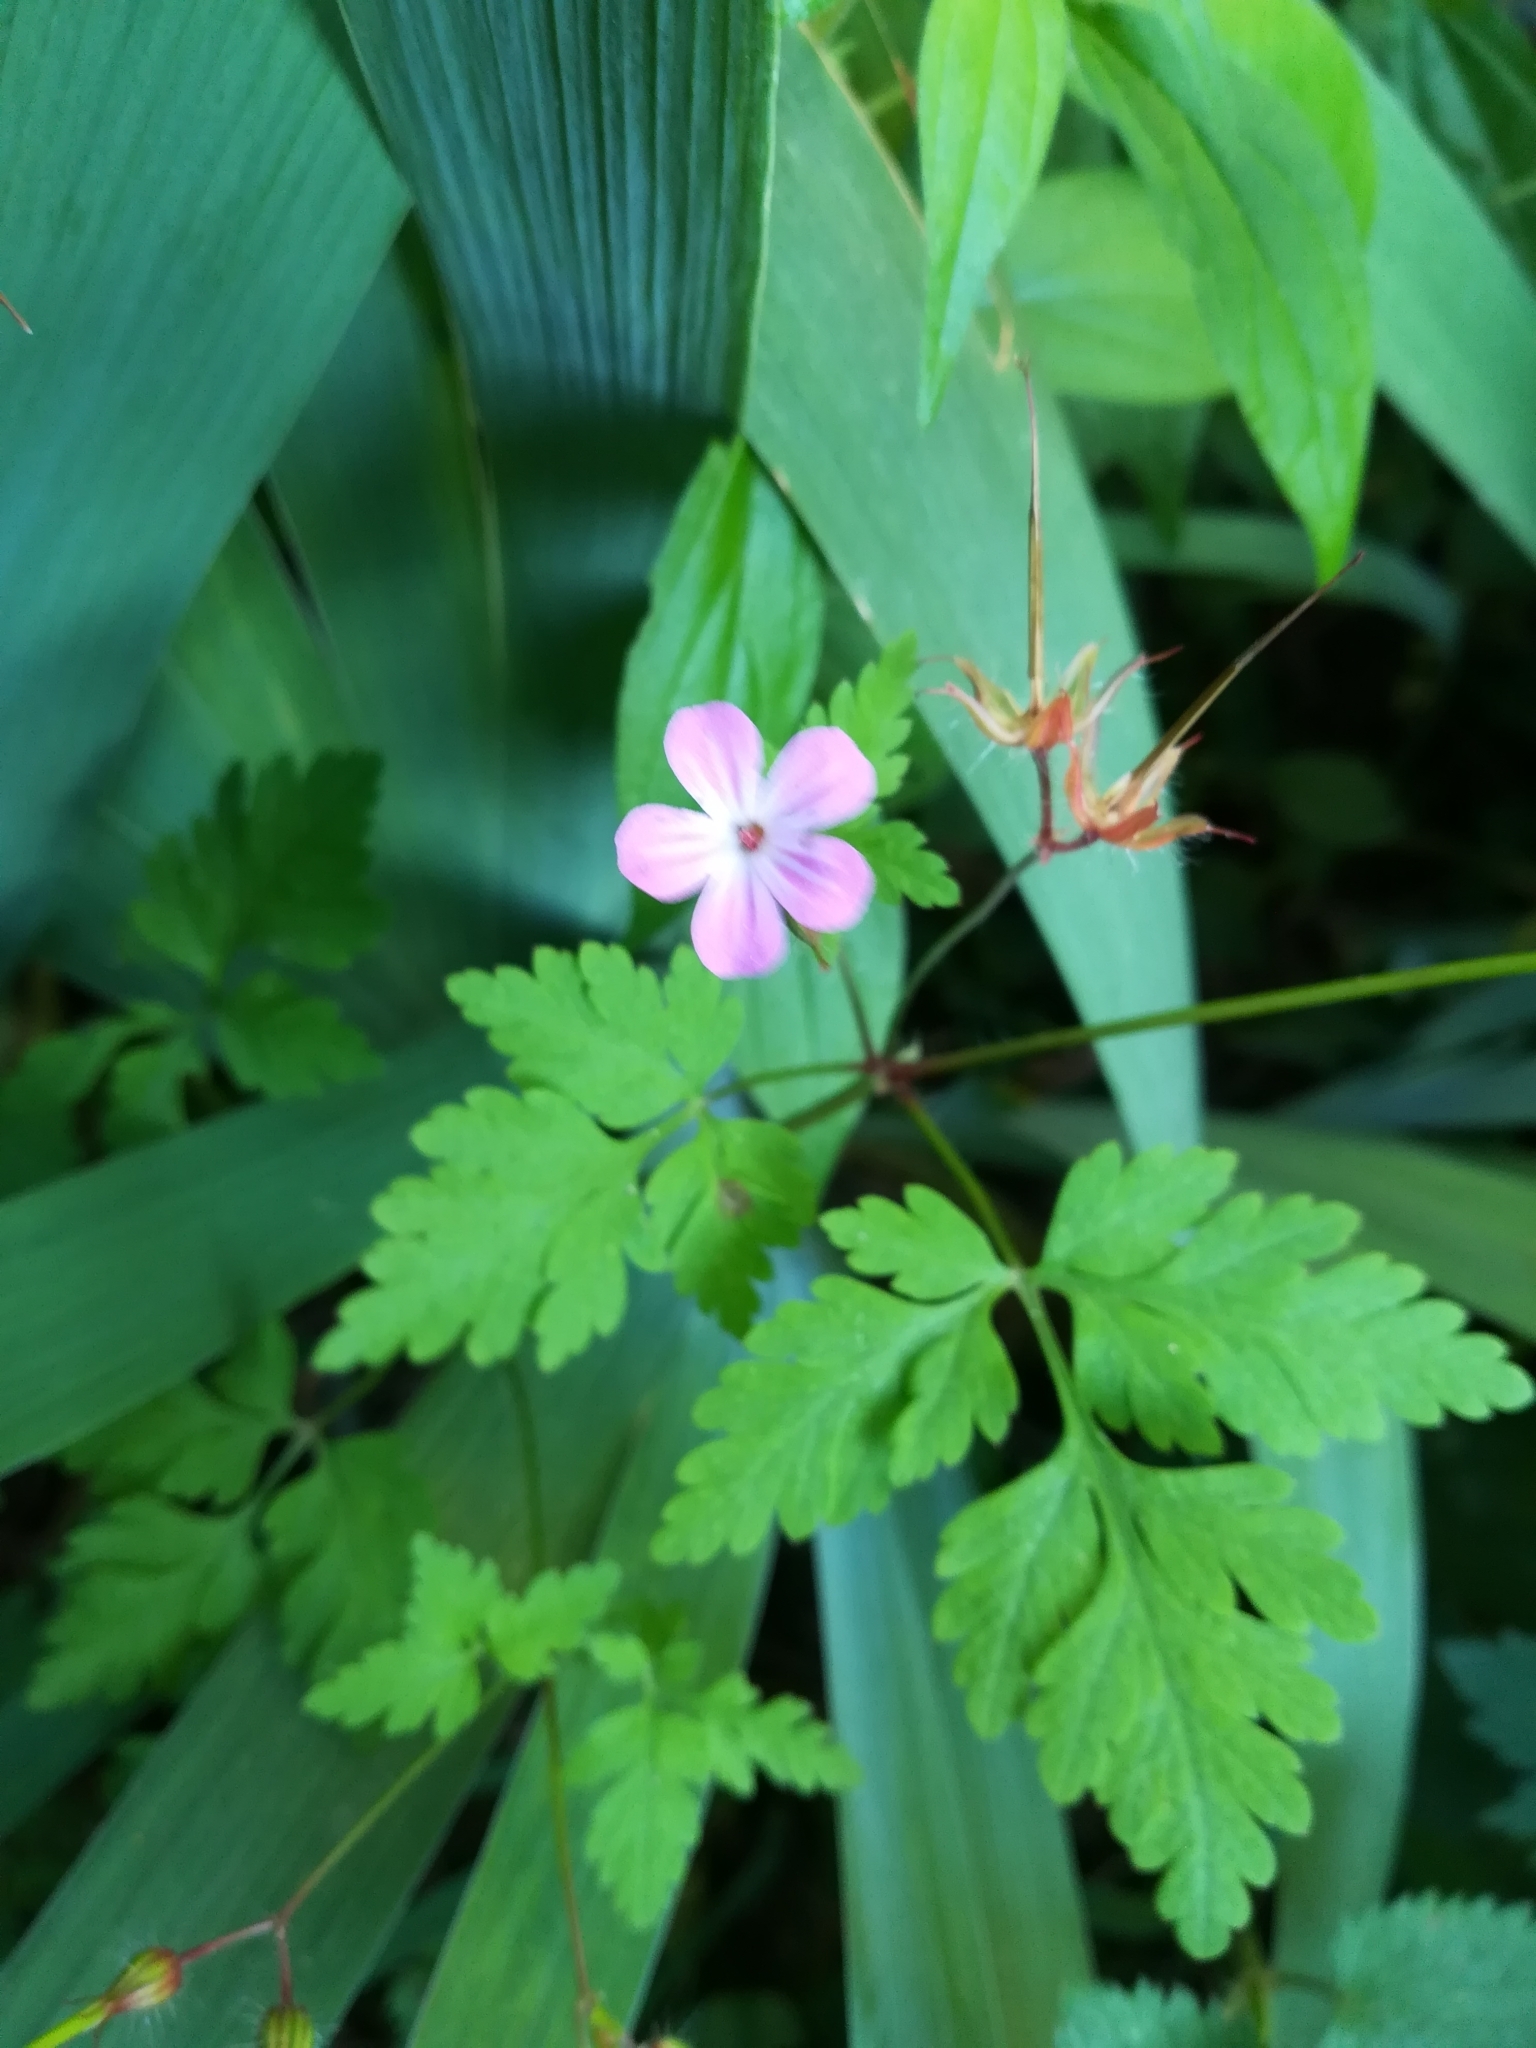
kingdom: Plantae
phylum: Tracheophyta
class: Magnoliopsida
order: Geraniales
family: Geraniaceae
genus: Geranium
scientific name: Geranium robertianum
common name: Herb-robert
